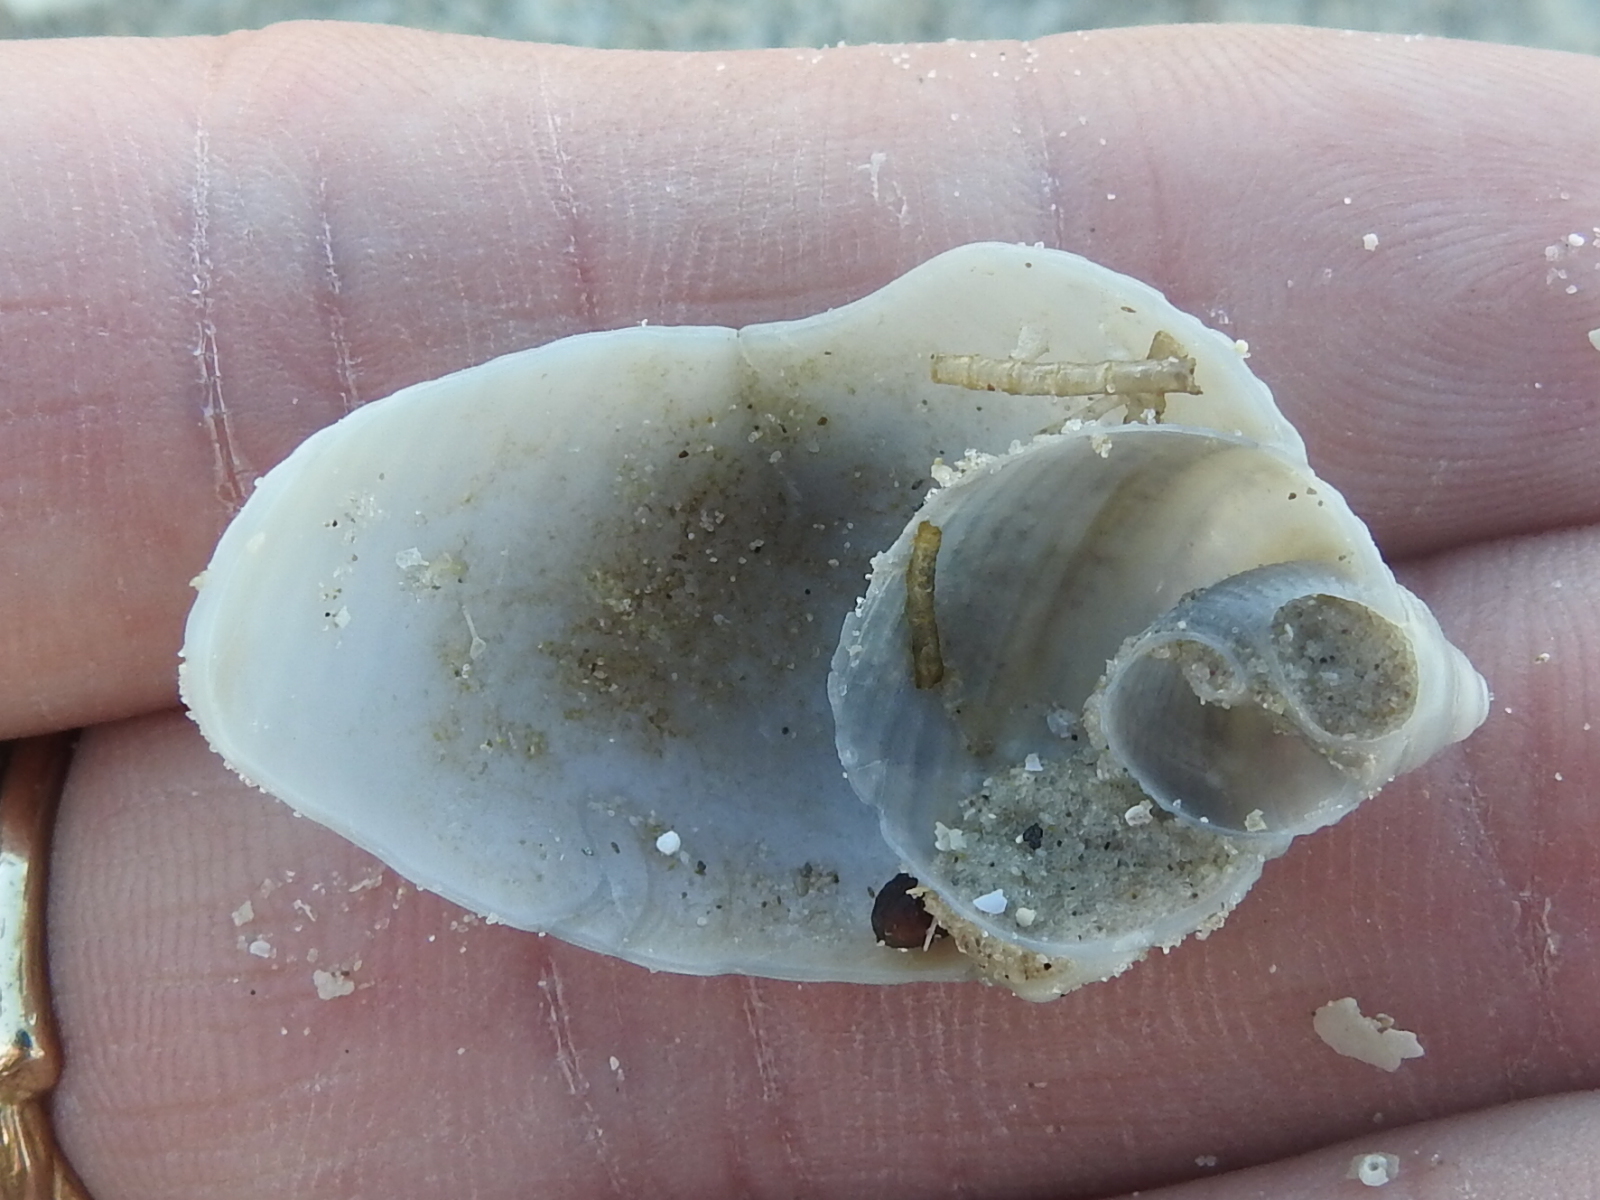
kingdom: Animalia
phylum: Mollusca
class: Gastropoda
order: Littorinimorpha
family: Cassidae
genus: Semicassis
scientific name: Semicassis granulata
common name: Scotch bonnet
